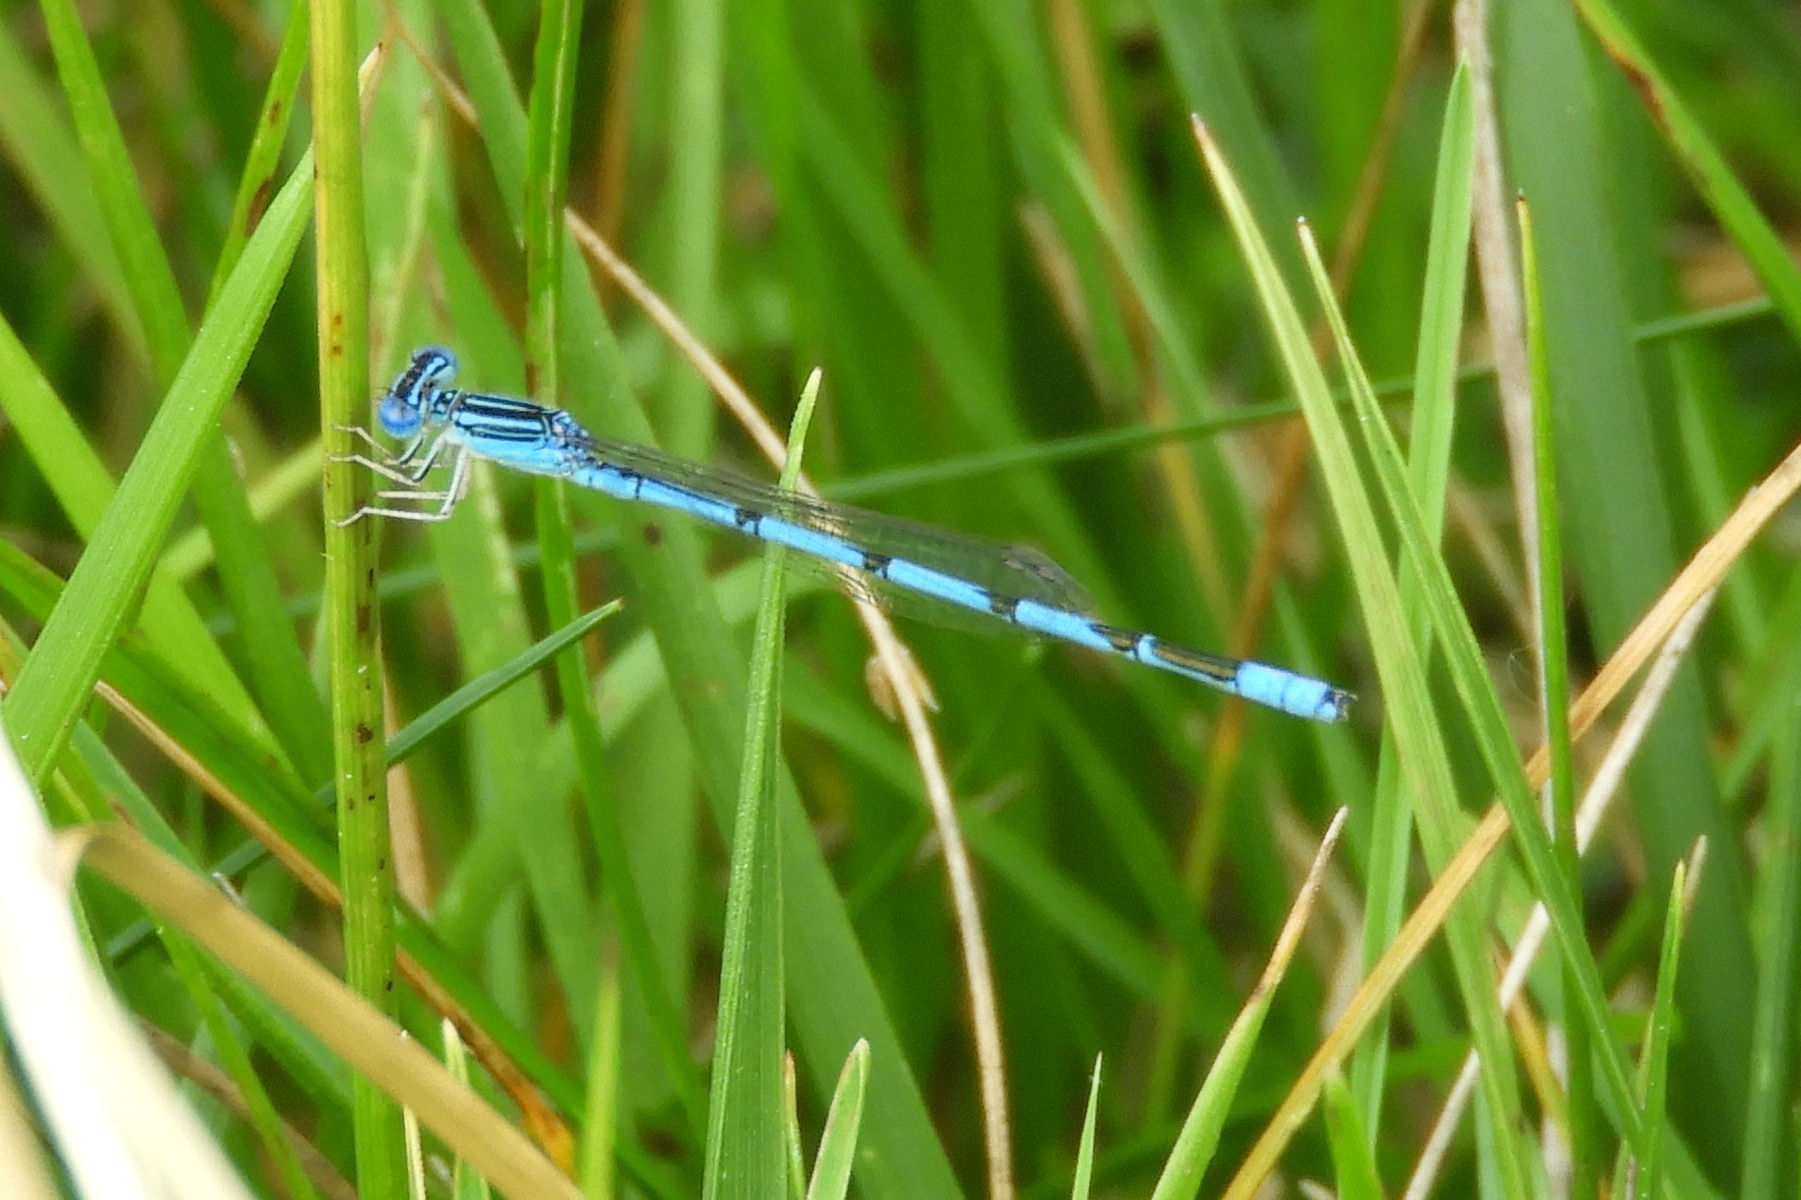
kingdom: Animalia
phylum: Arthropoda
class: Insecta
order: Odonata
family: Coenagrionidae
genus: Enallagma
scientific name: Enallagma basidens
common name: Double-striped bluet
